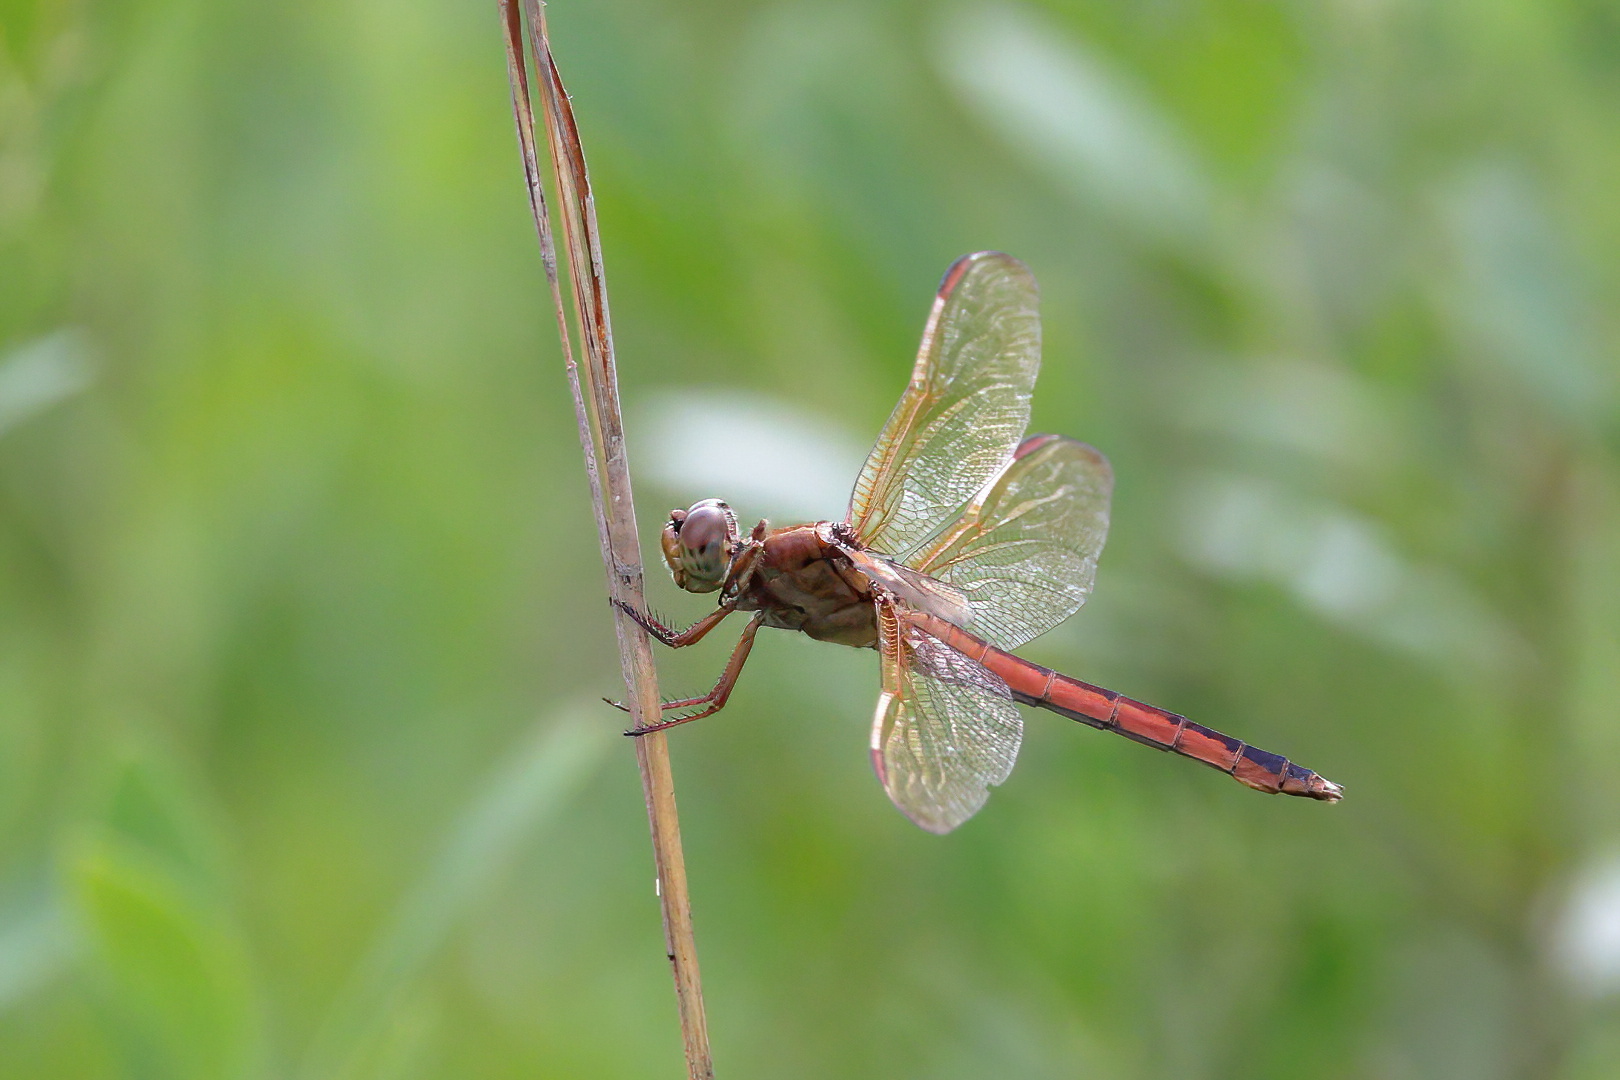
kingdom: Animalia
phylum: Arthropoda
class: Insecta
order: Odonata
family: Libellulidae
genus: Libellula
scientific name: Libellula needhami
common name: Needham's skimmer
